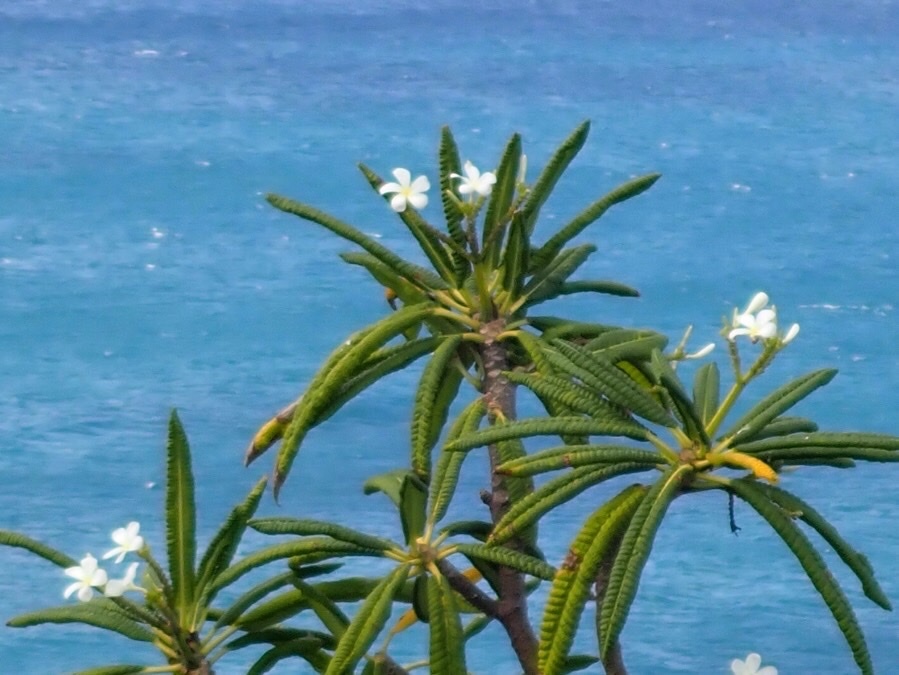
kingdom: Plantae
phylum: Tracheophyta
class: Magnoliopsida
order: Gentianales
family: Apocynaceae
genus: Plumeria
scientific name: Plumeria alba
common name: Wild frangipani
